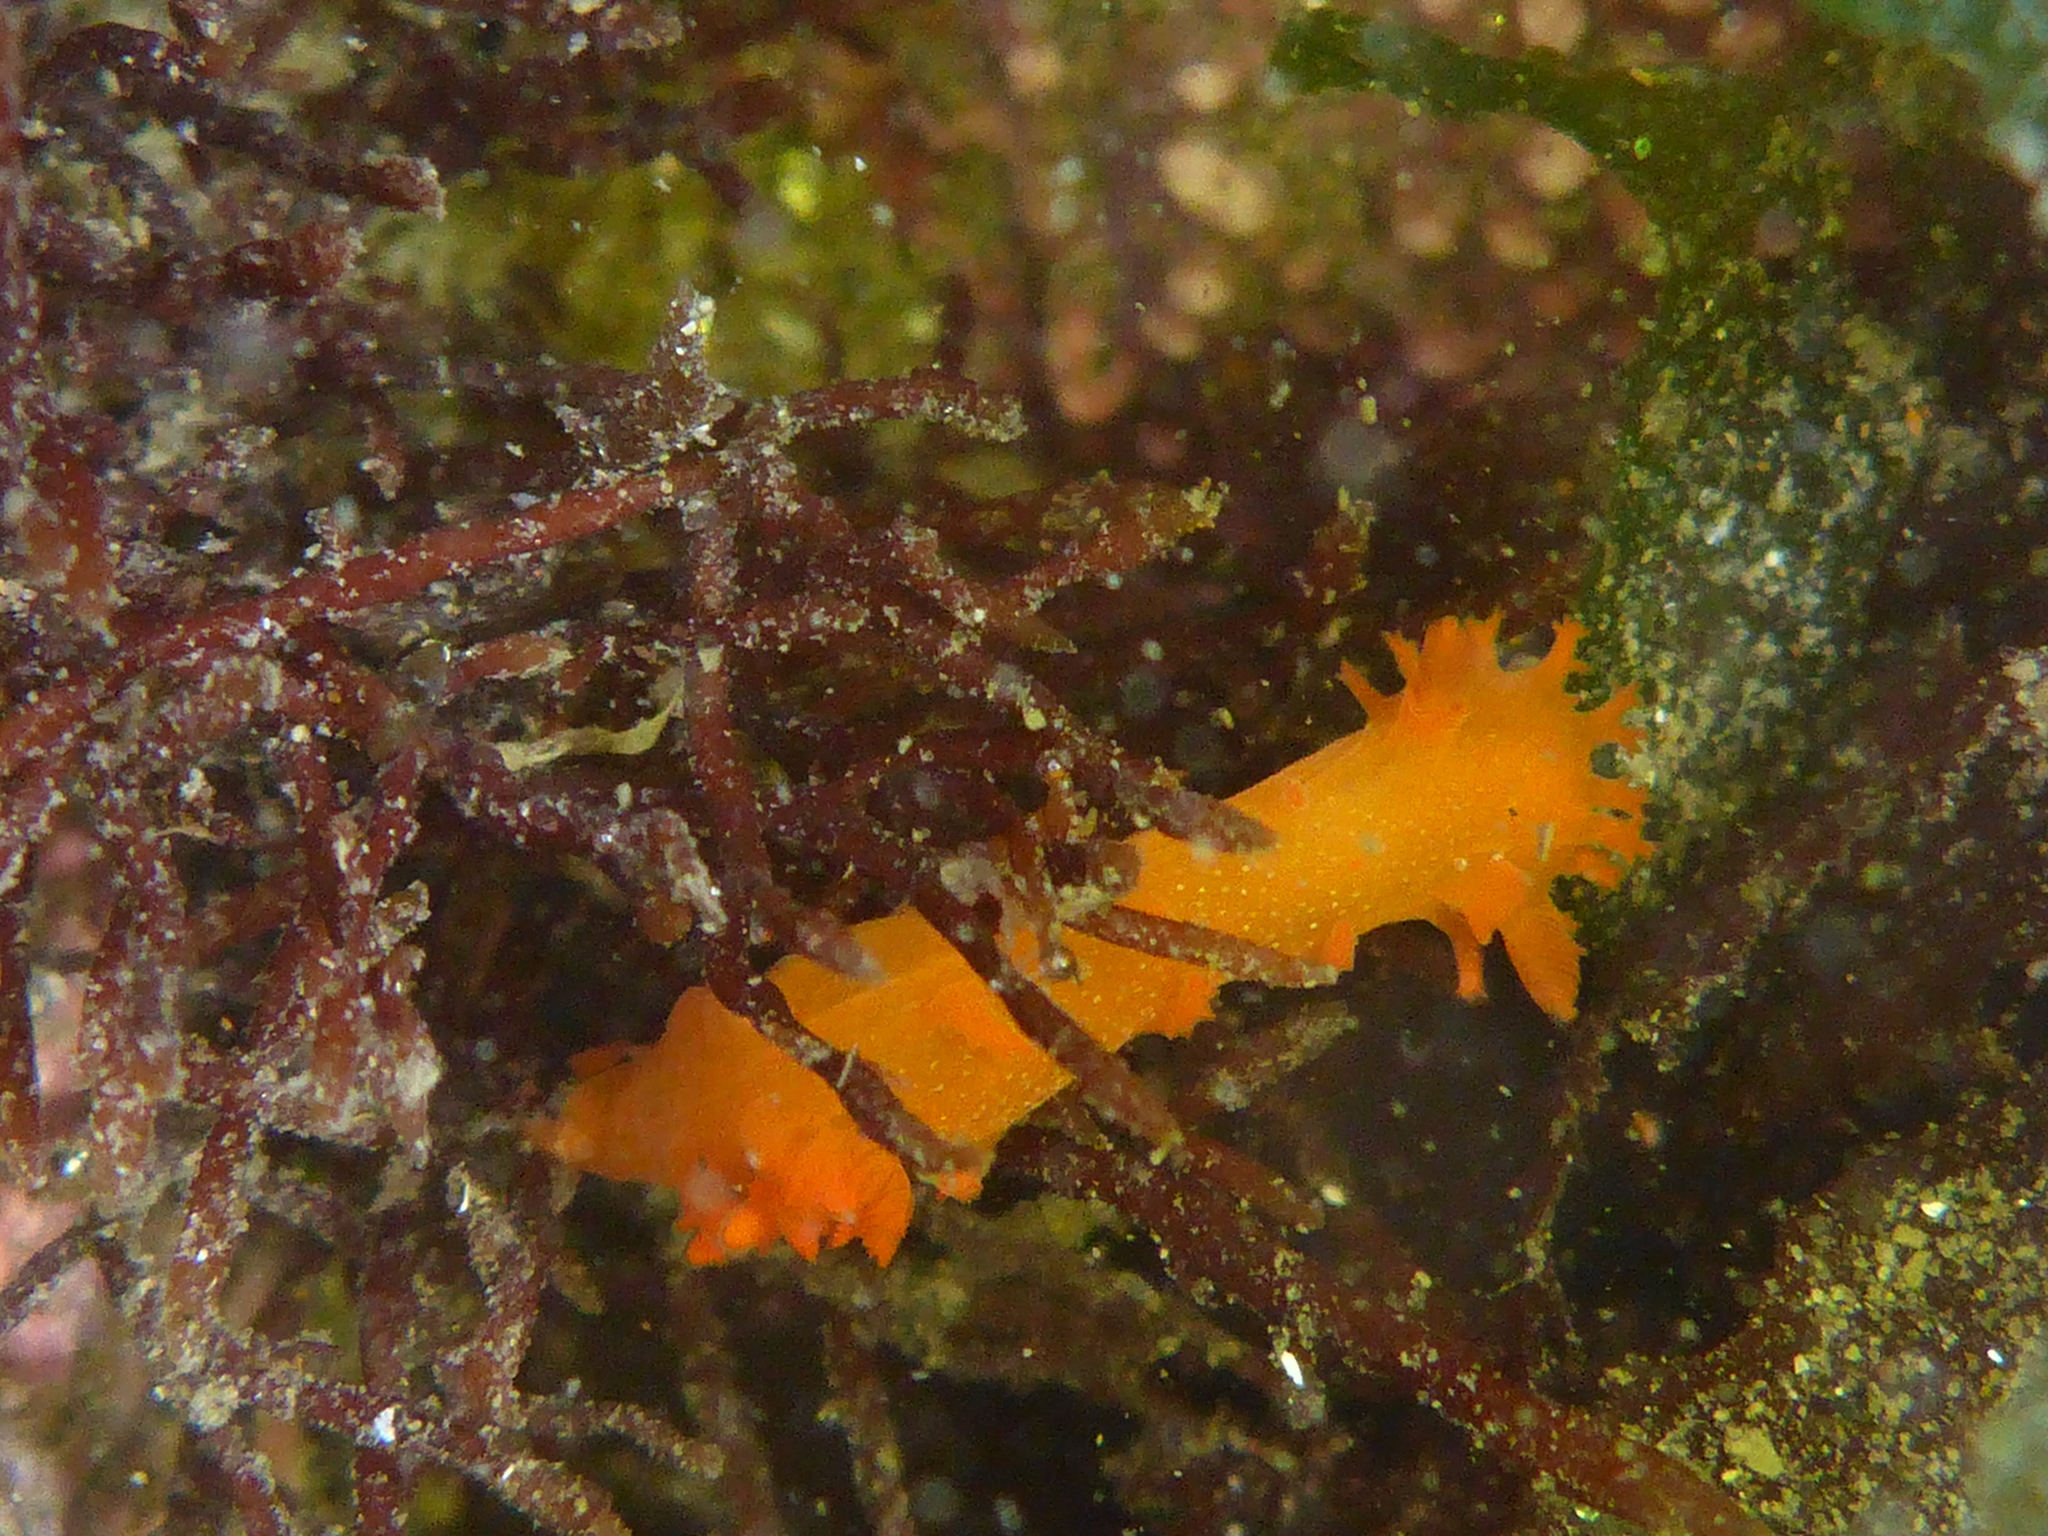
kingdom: Animalia
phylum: Mollusca
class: Gastropoda
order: Nudibranchia
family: Polyceridae
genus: Triopha
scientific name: Triopha maculata
